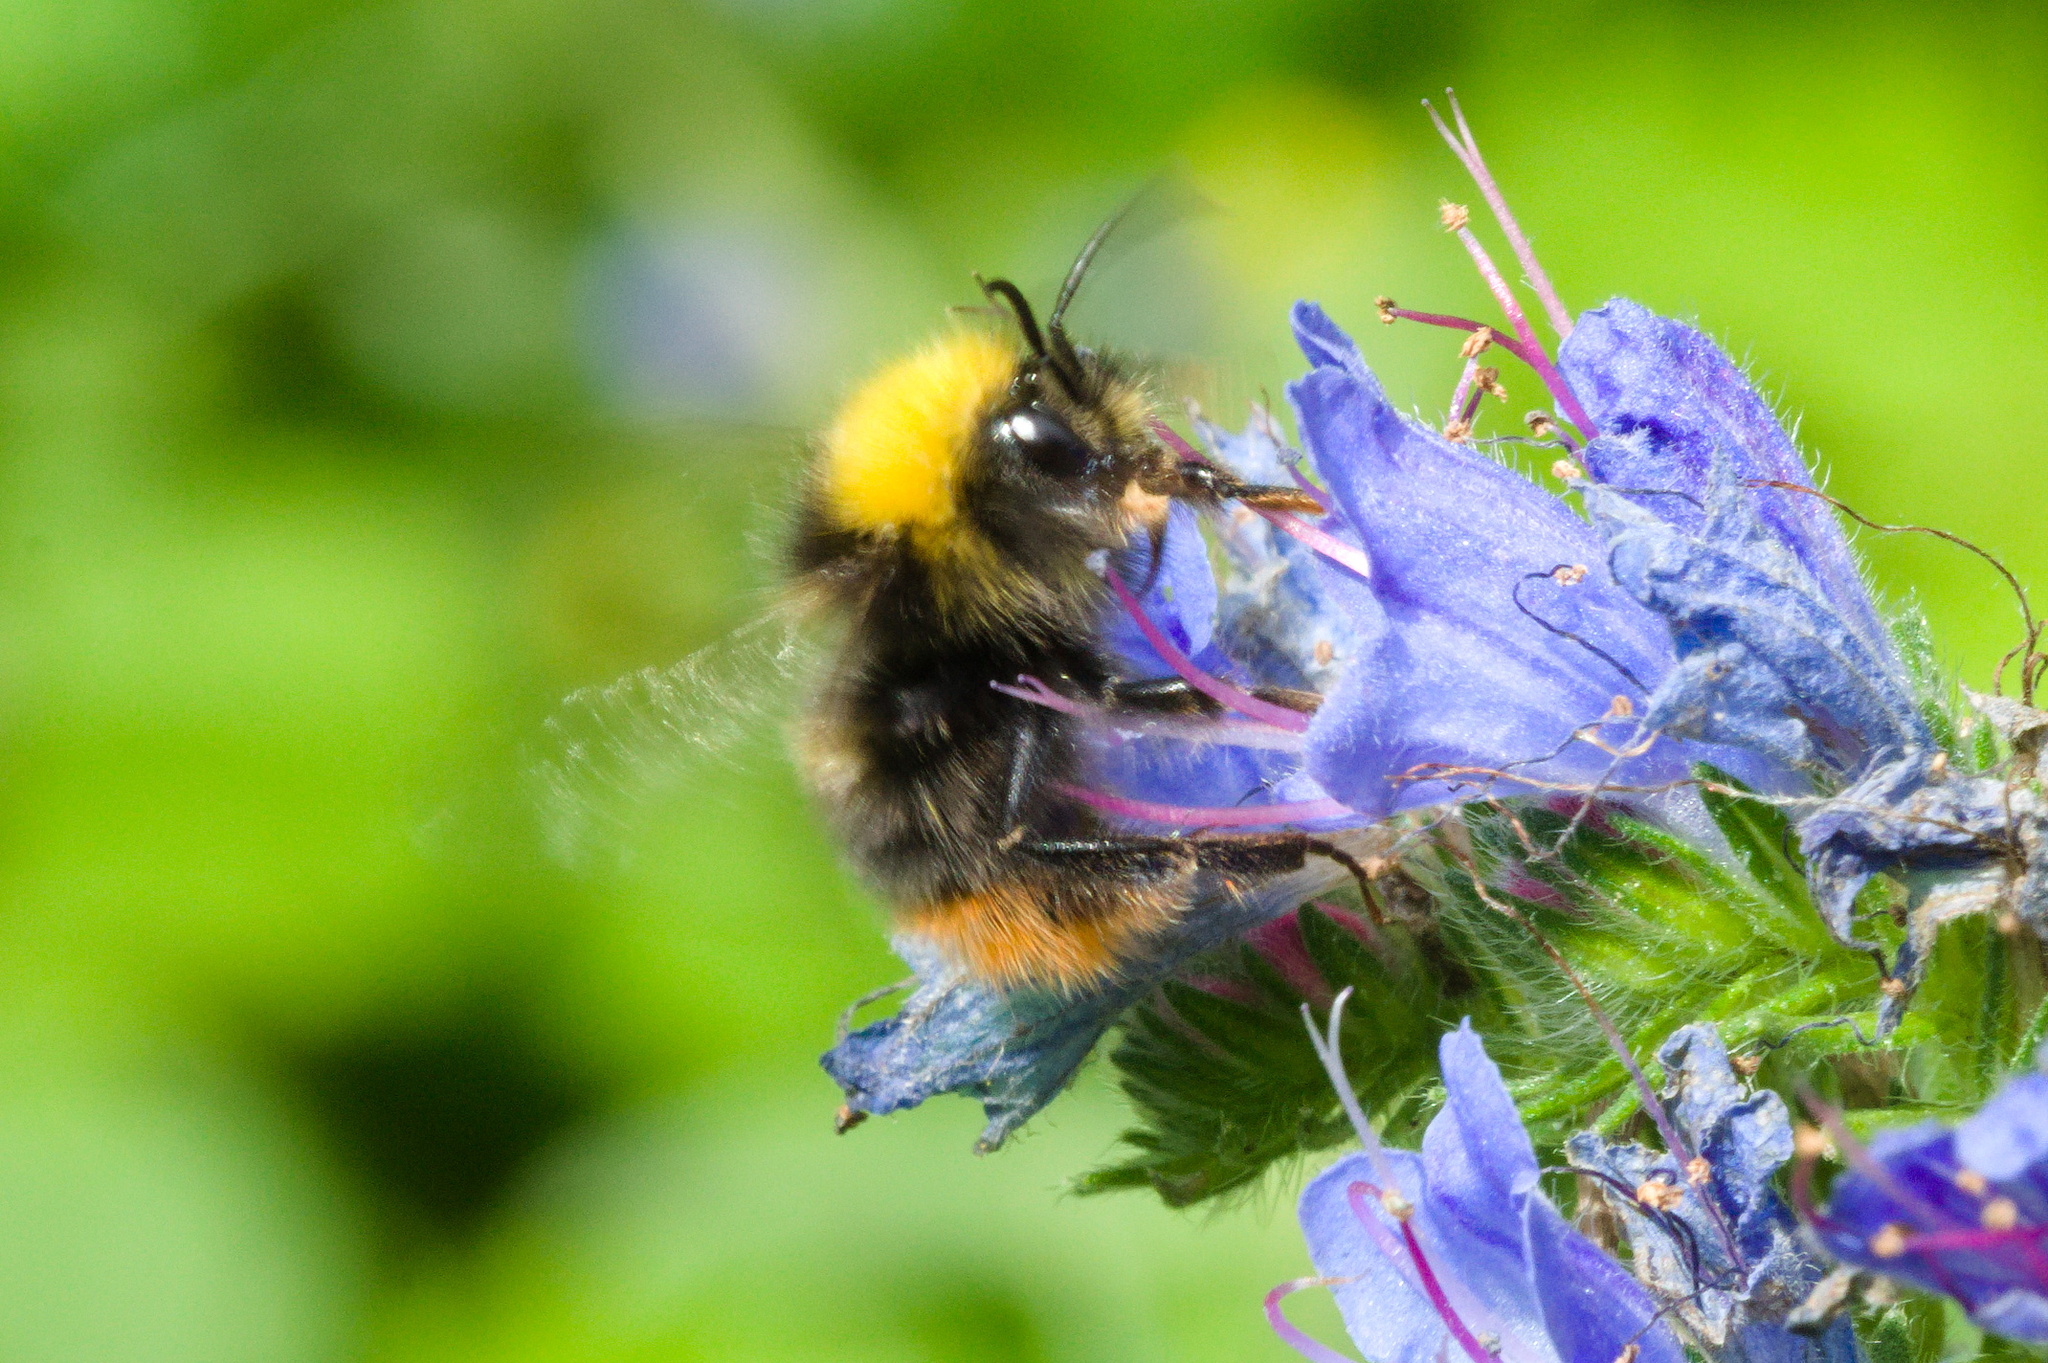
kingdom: Animalia
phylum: Arthropoda
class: Insecta
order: Hymenoptera
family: Apidae
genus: Bombus
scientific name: Bombus pratorum
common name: Early humble-bee
